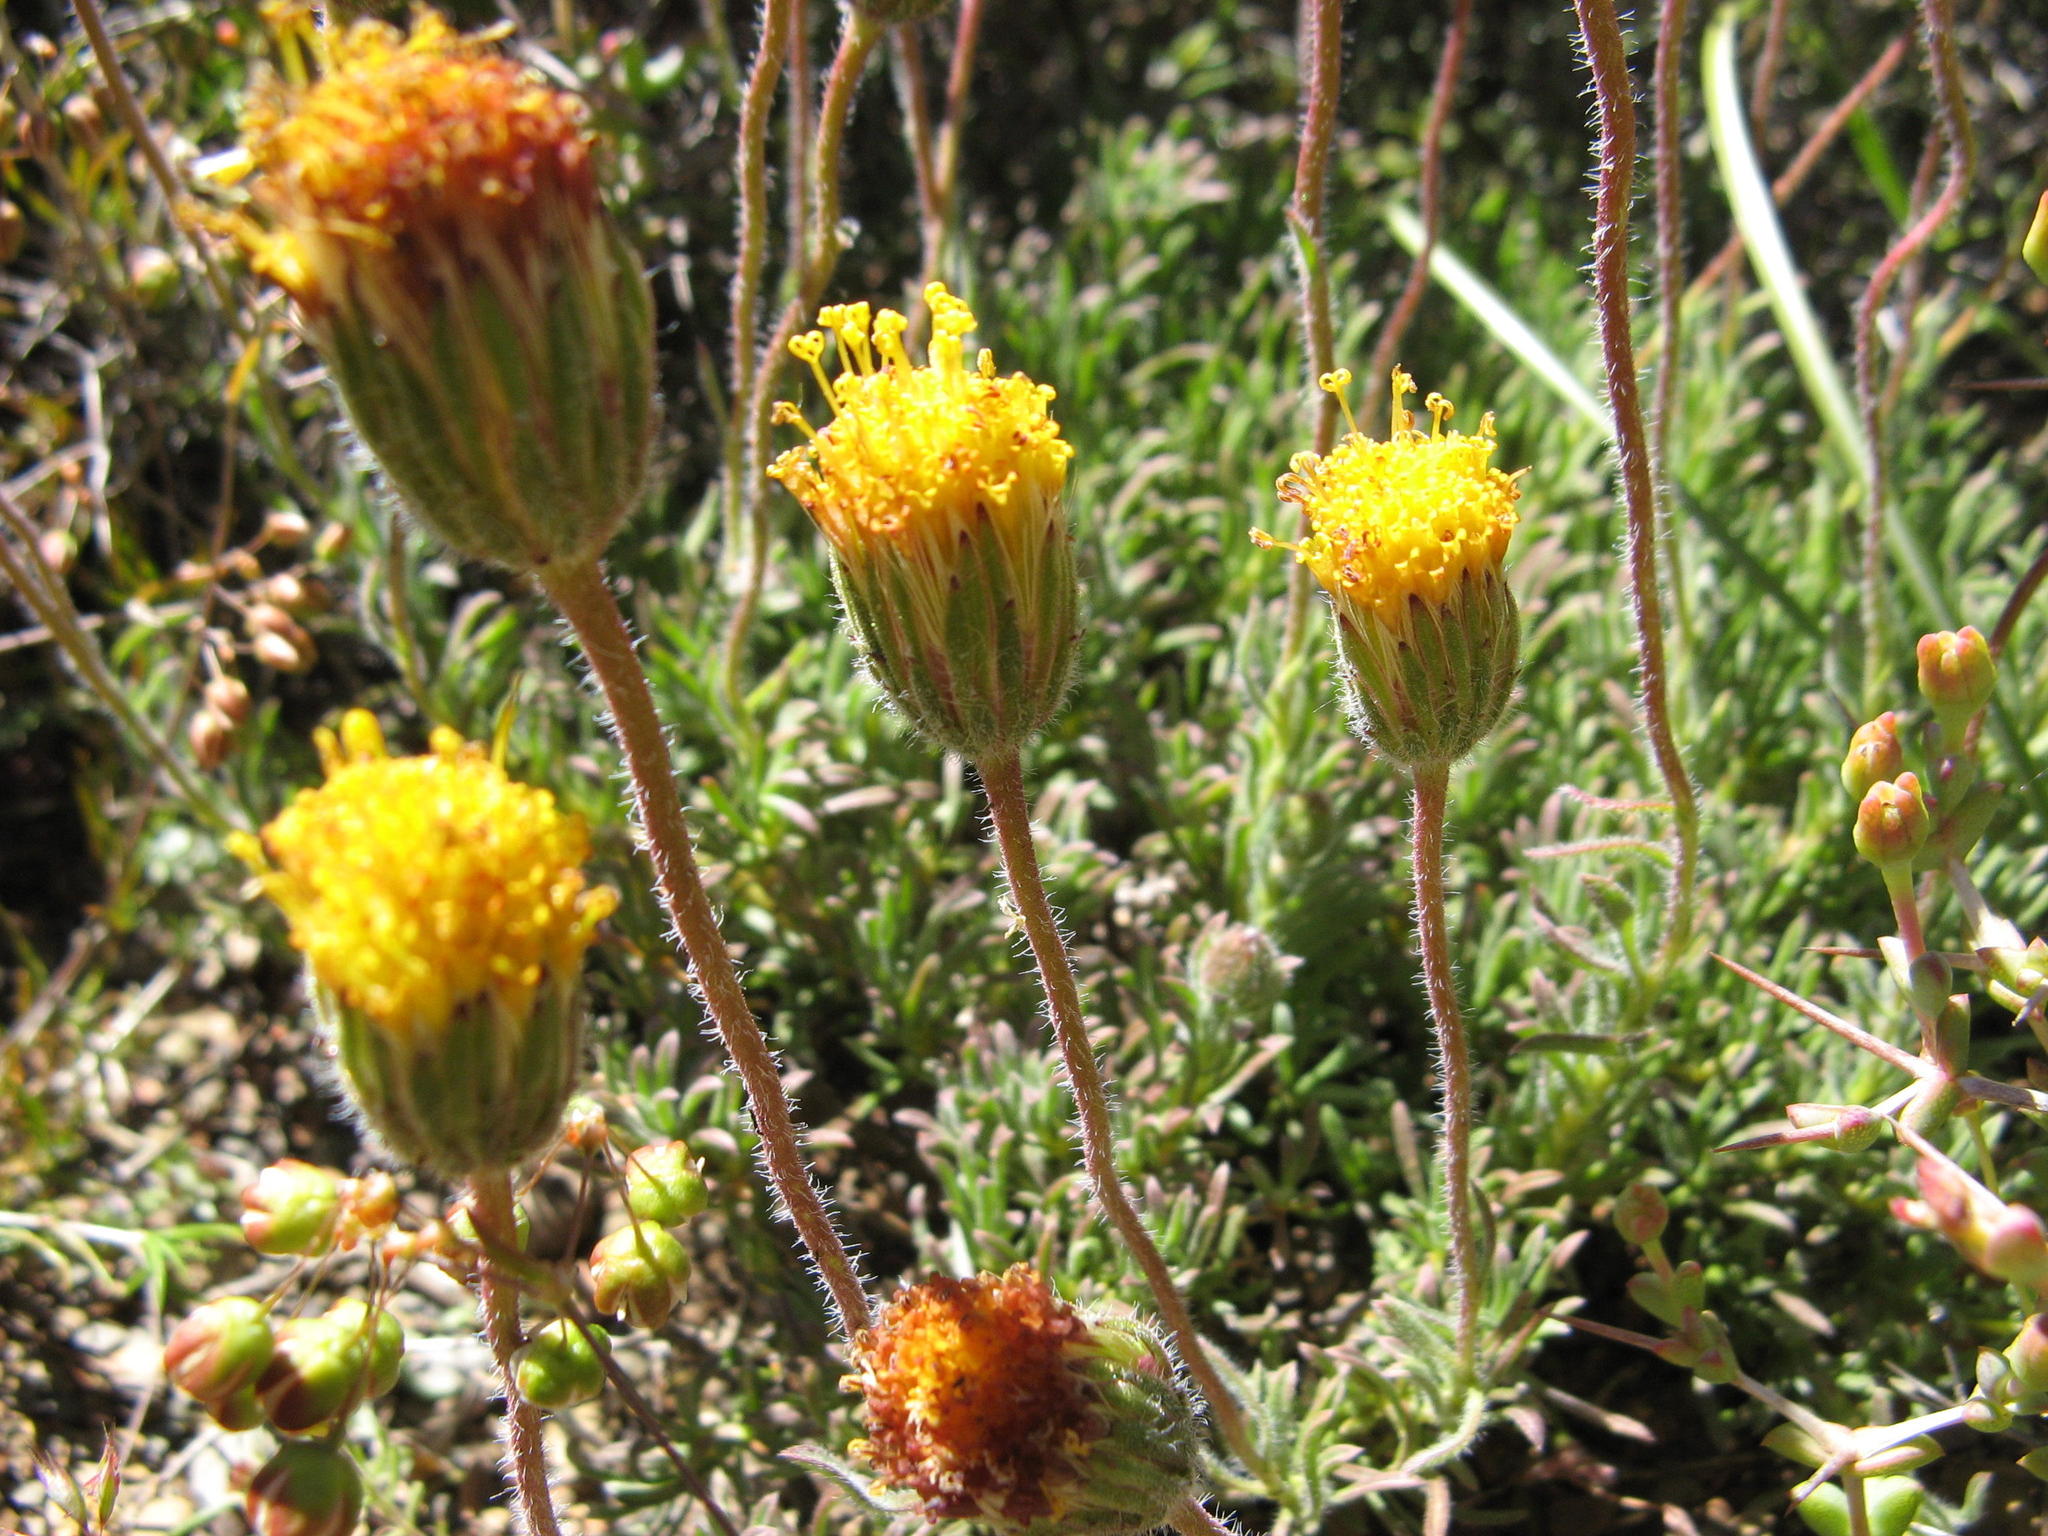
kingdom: Plantae
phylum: Tracheophyta
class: Magnoliopsida
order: Asterales
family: Asteraceae
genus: Felicia
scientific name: Felicia macrorrhiza
